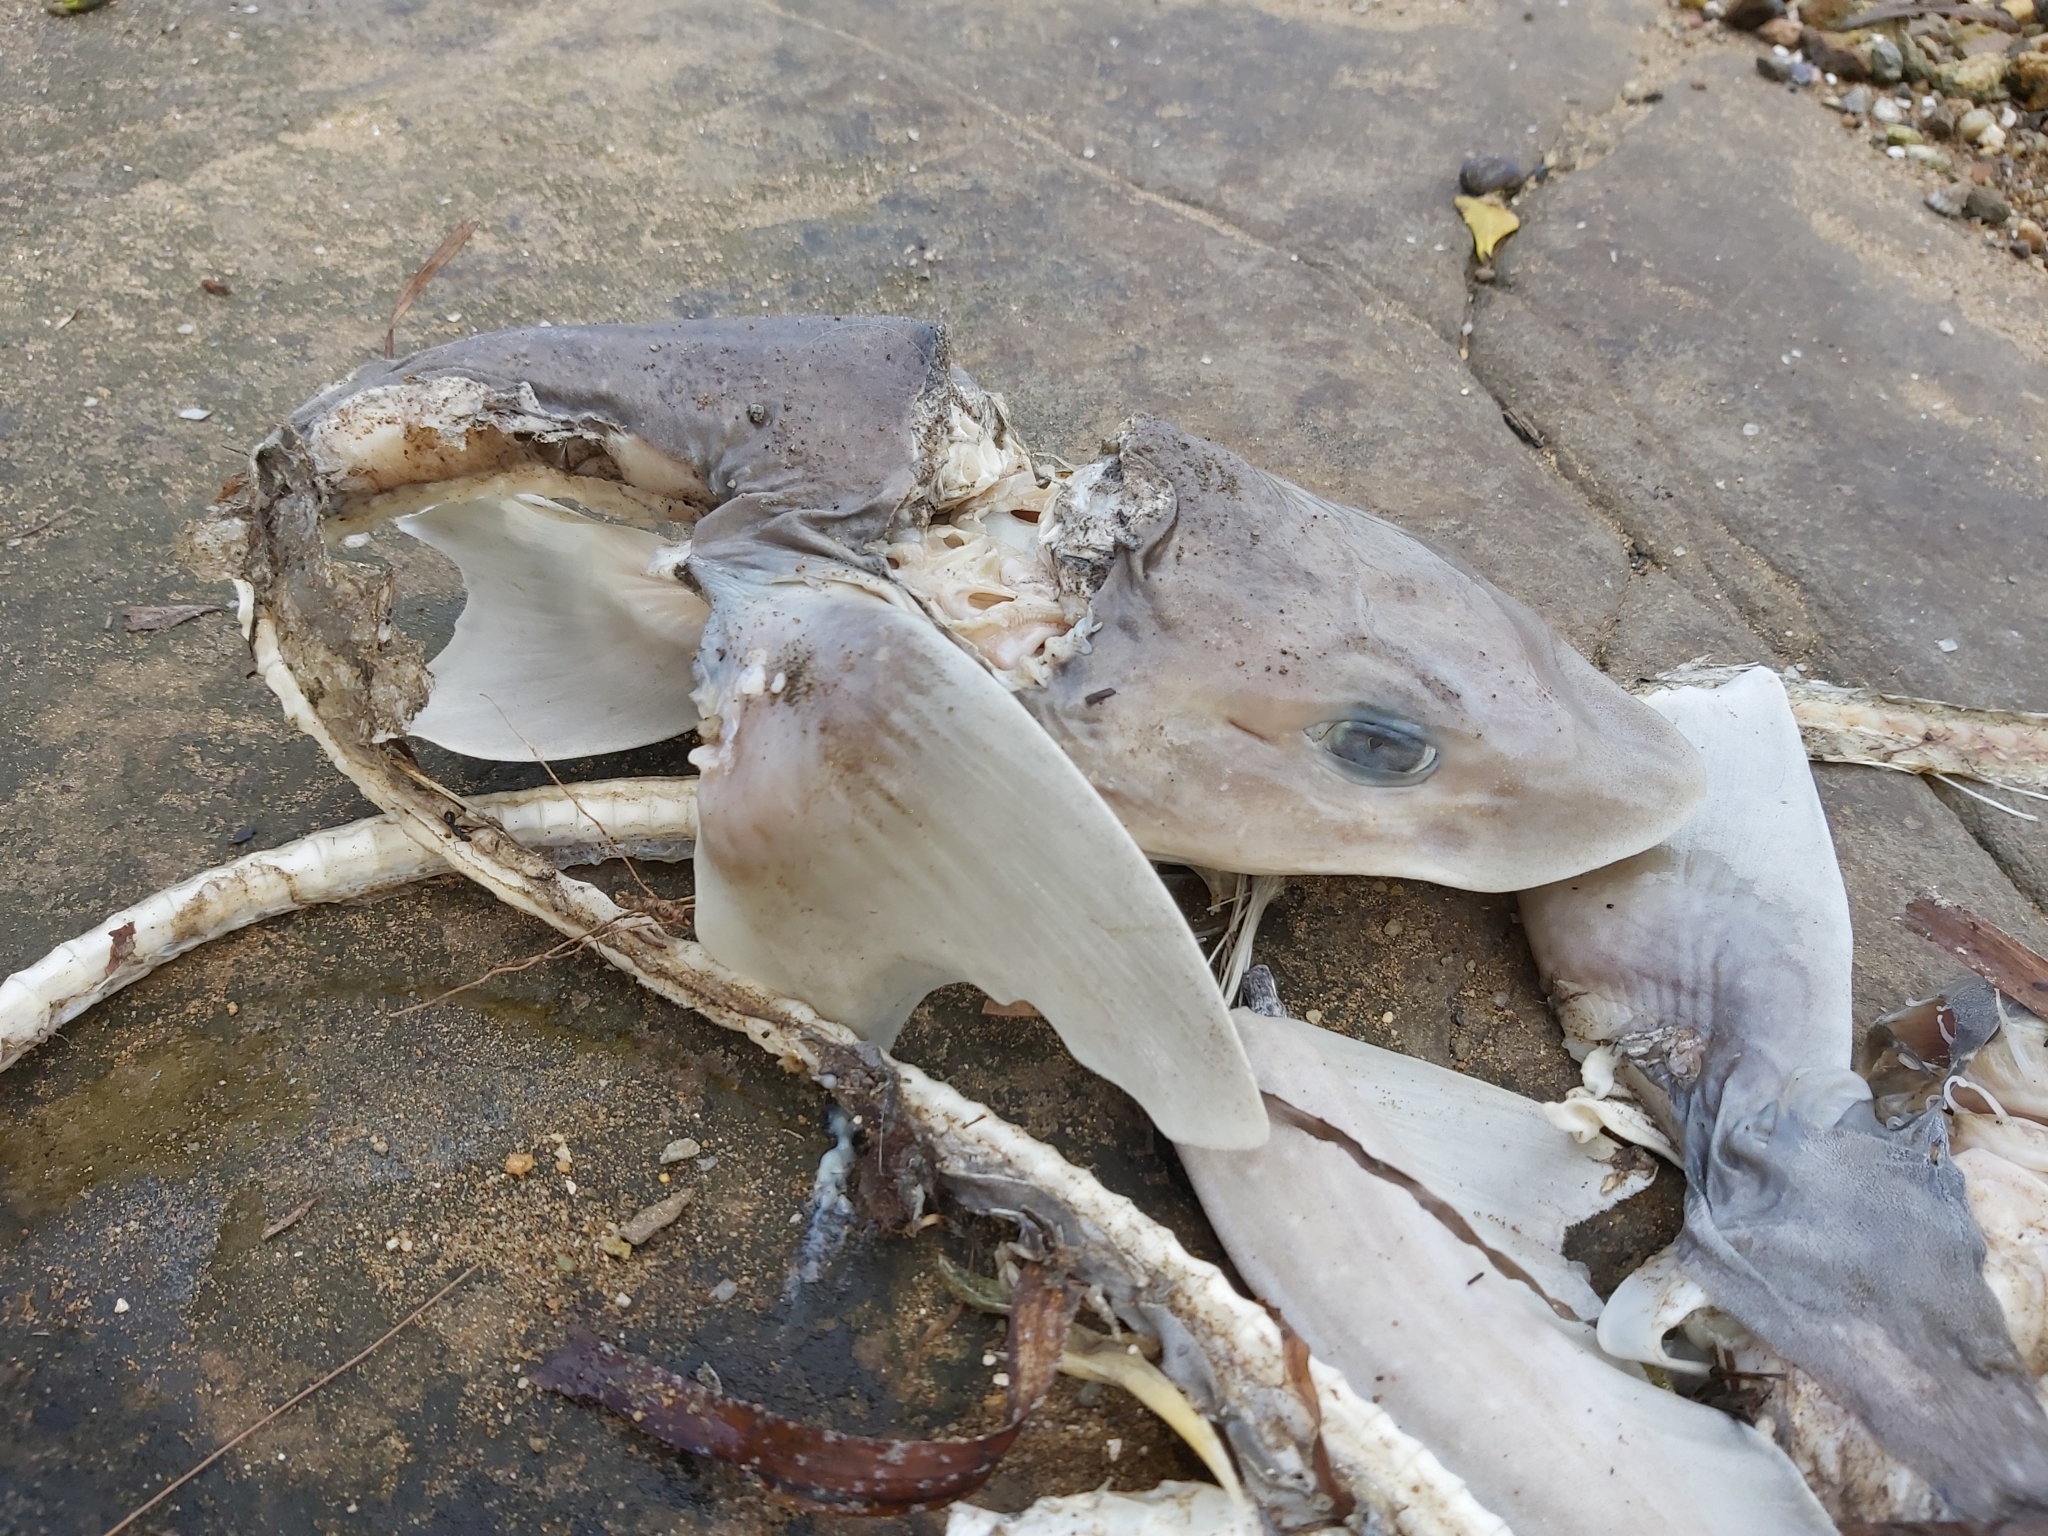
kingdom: Animalia
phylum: Chordata
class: Elasmobranchii
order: Carcharhiniformes
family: Triakidae
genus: Mustelus
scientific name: Mustelus antarcticus
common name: Gummy shark
